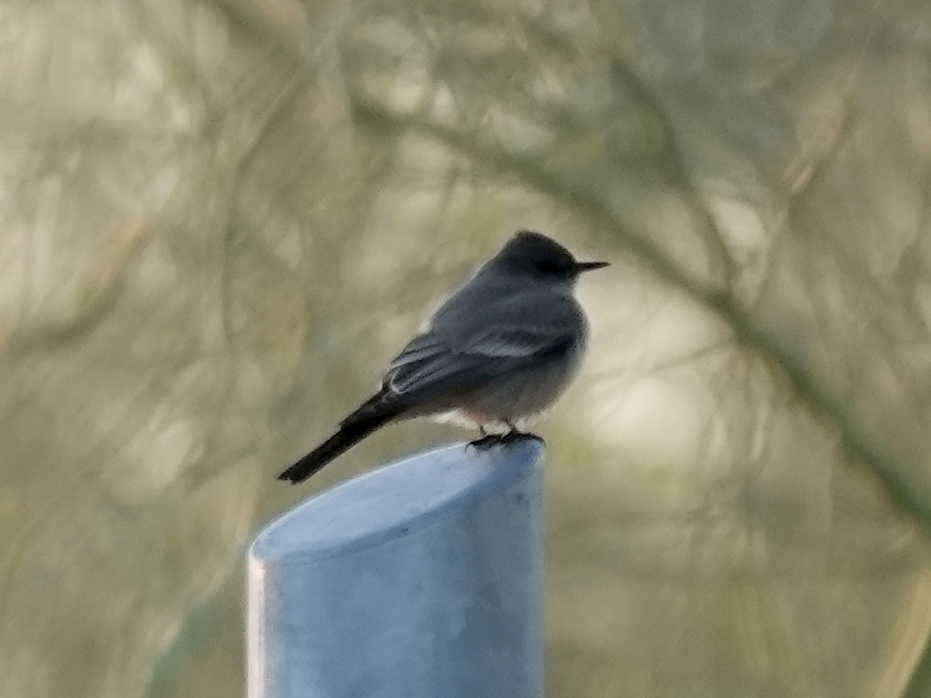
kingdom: Animalia
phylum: Chordata
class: Aves
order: Passeriformes
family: Tyrannidae
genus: Pyrocephalus
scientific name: Pyrocephalus rubinus
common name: Vermilion flycatcher
